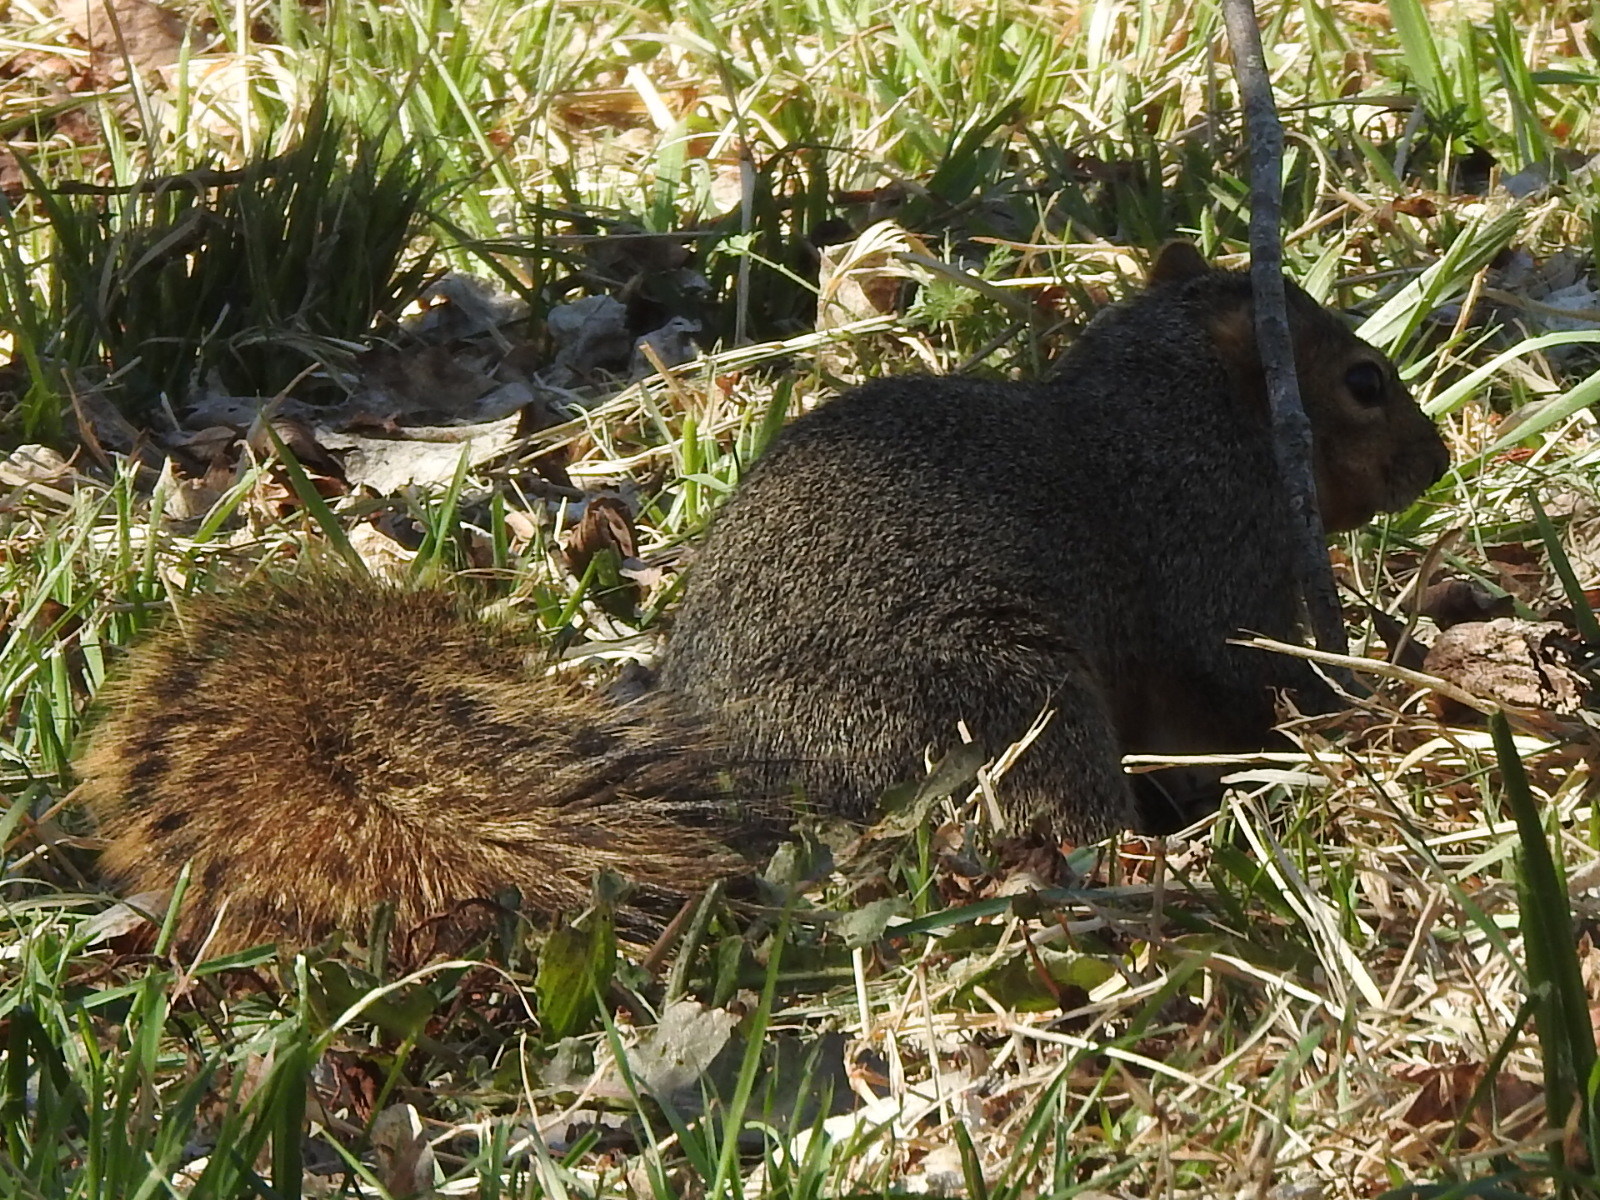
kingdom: Animalia
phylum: Chordata
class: Mammalia
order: Rodentia
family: Sciuridae
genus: Sciurus
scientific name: Sciurus niger
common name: Fox squirrel
